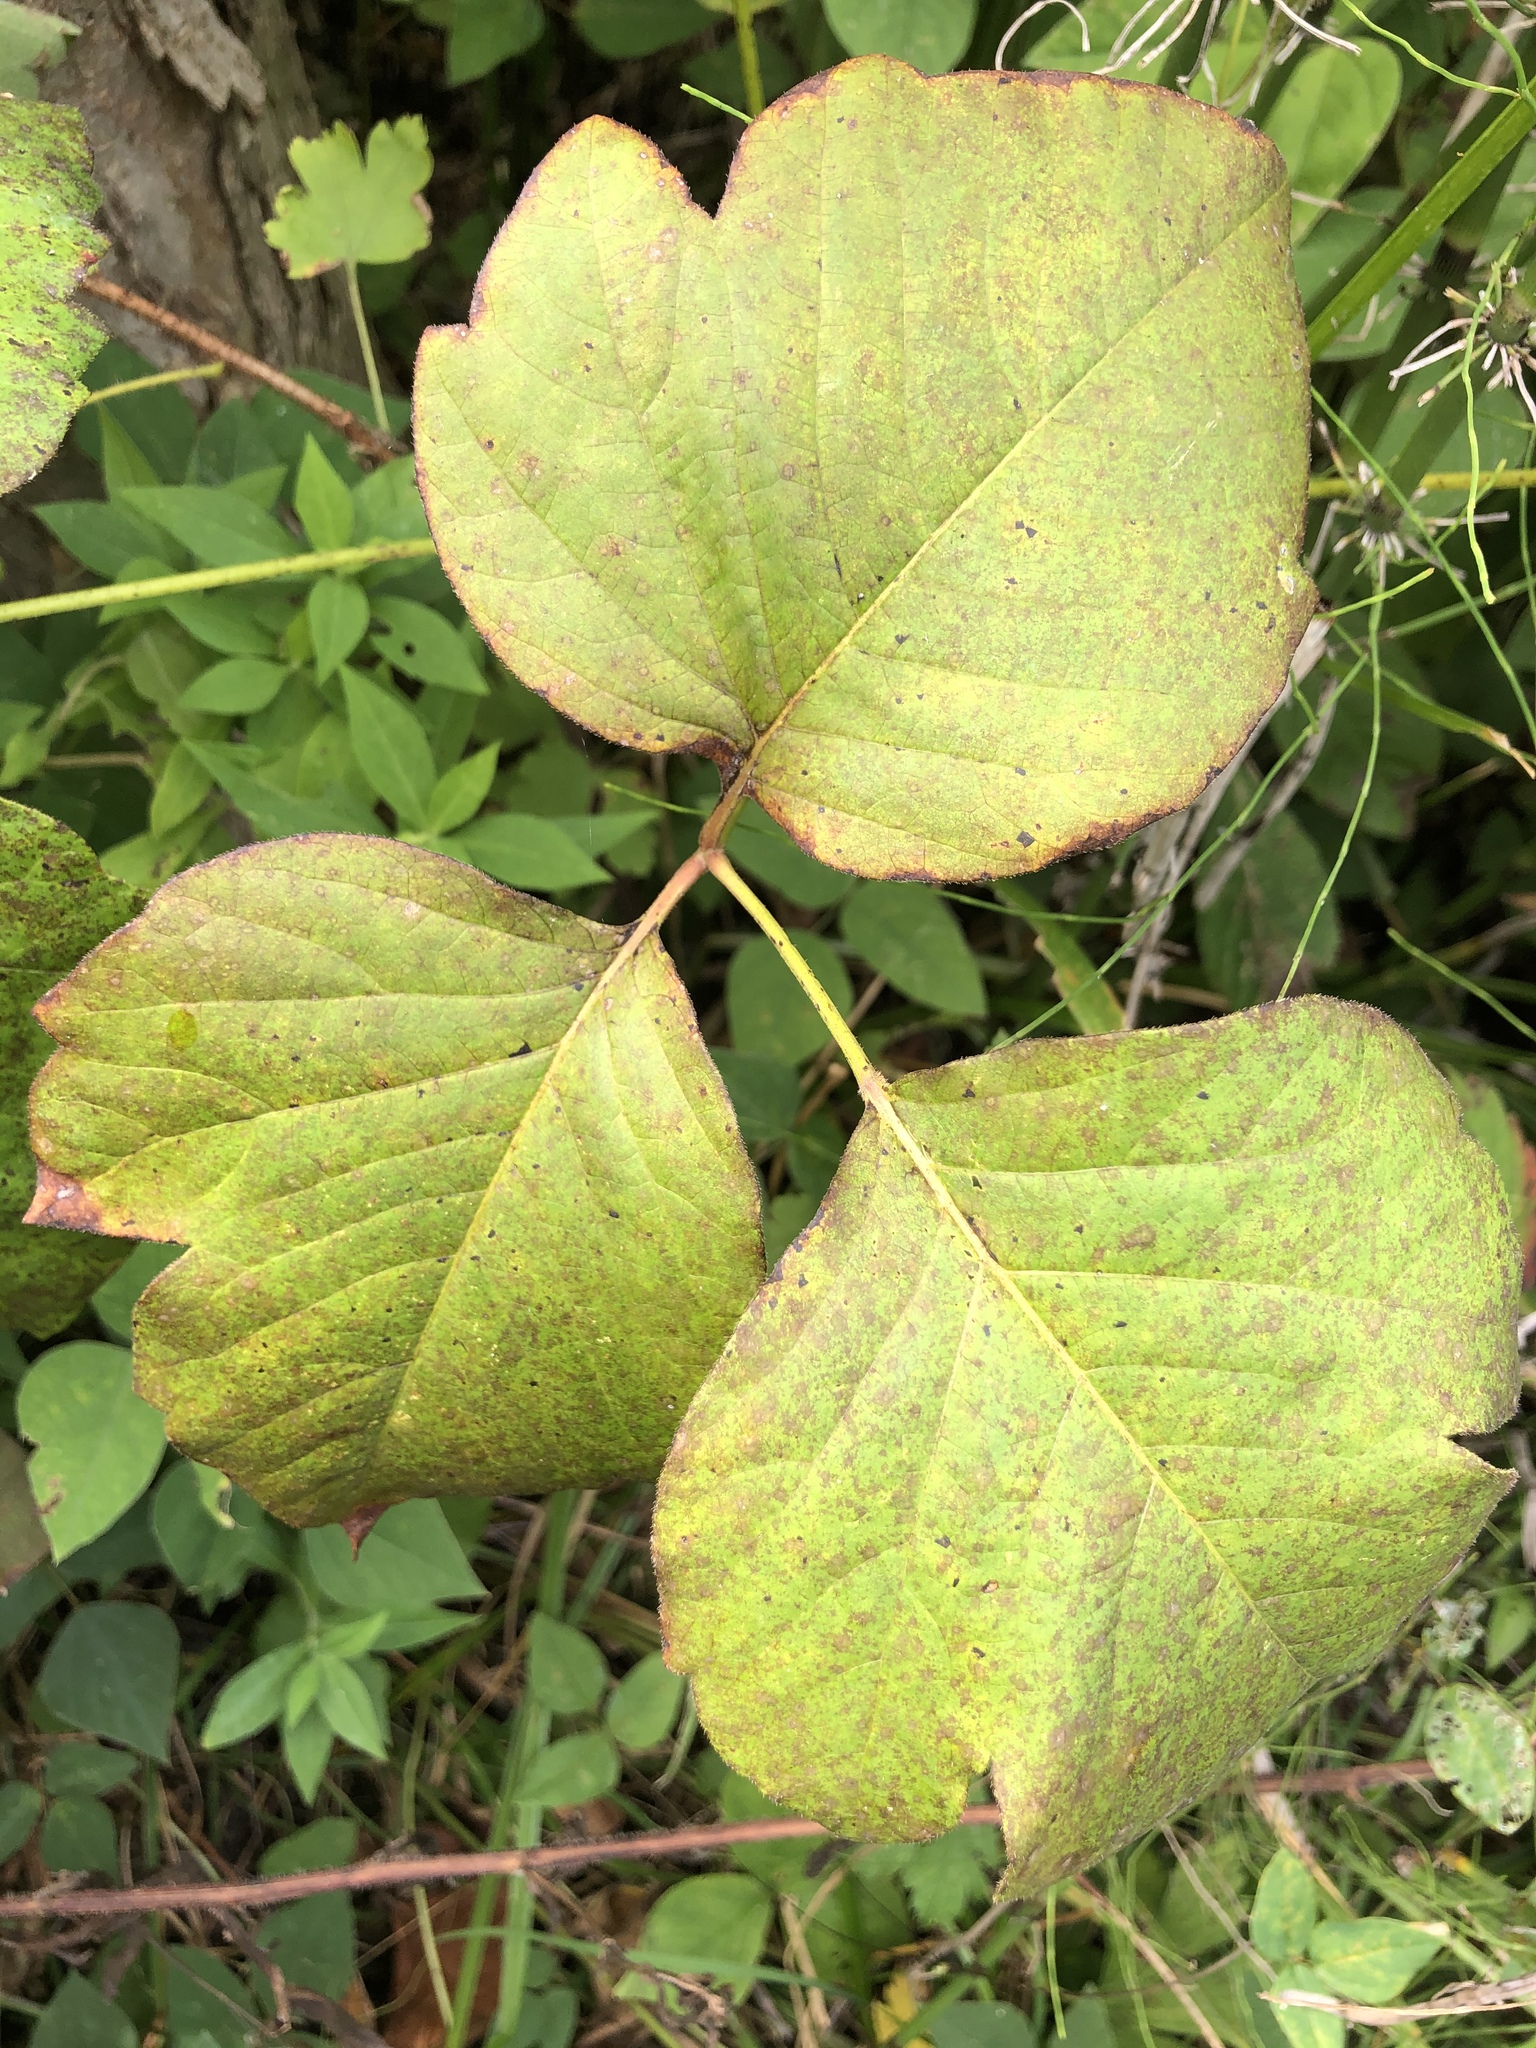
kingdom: Plantae
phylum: Tracheophyta
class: Magnoliopsida
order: Sapindales
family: Anacardiaceae
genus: Toxicodendron
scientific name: Toxicodendron rydbergii
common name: Rydberg's poison-ivy
